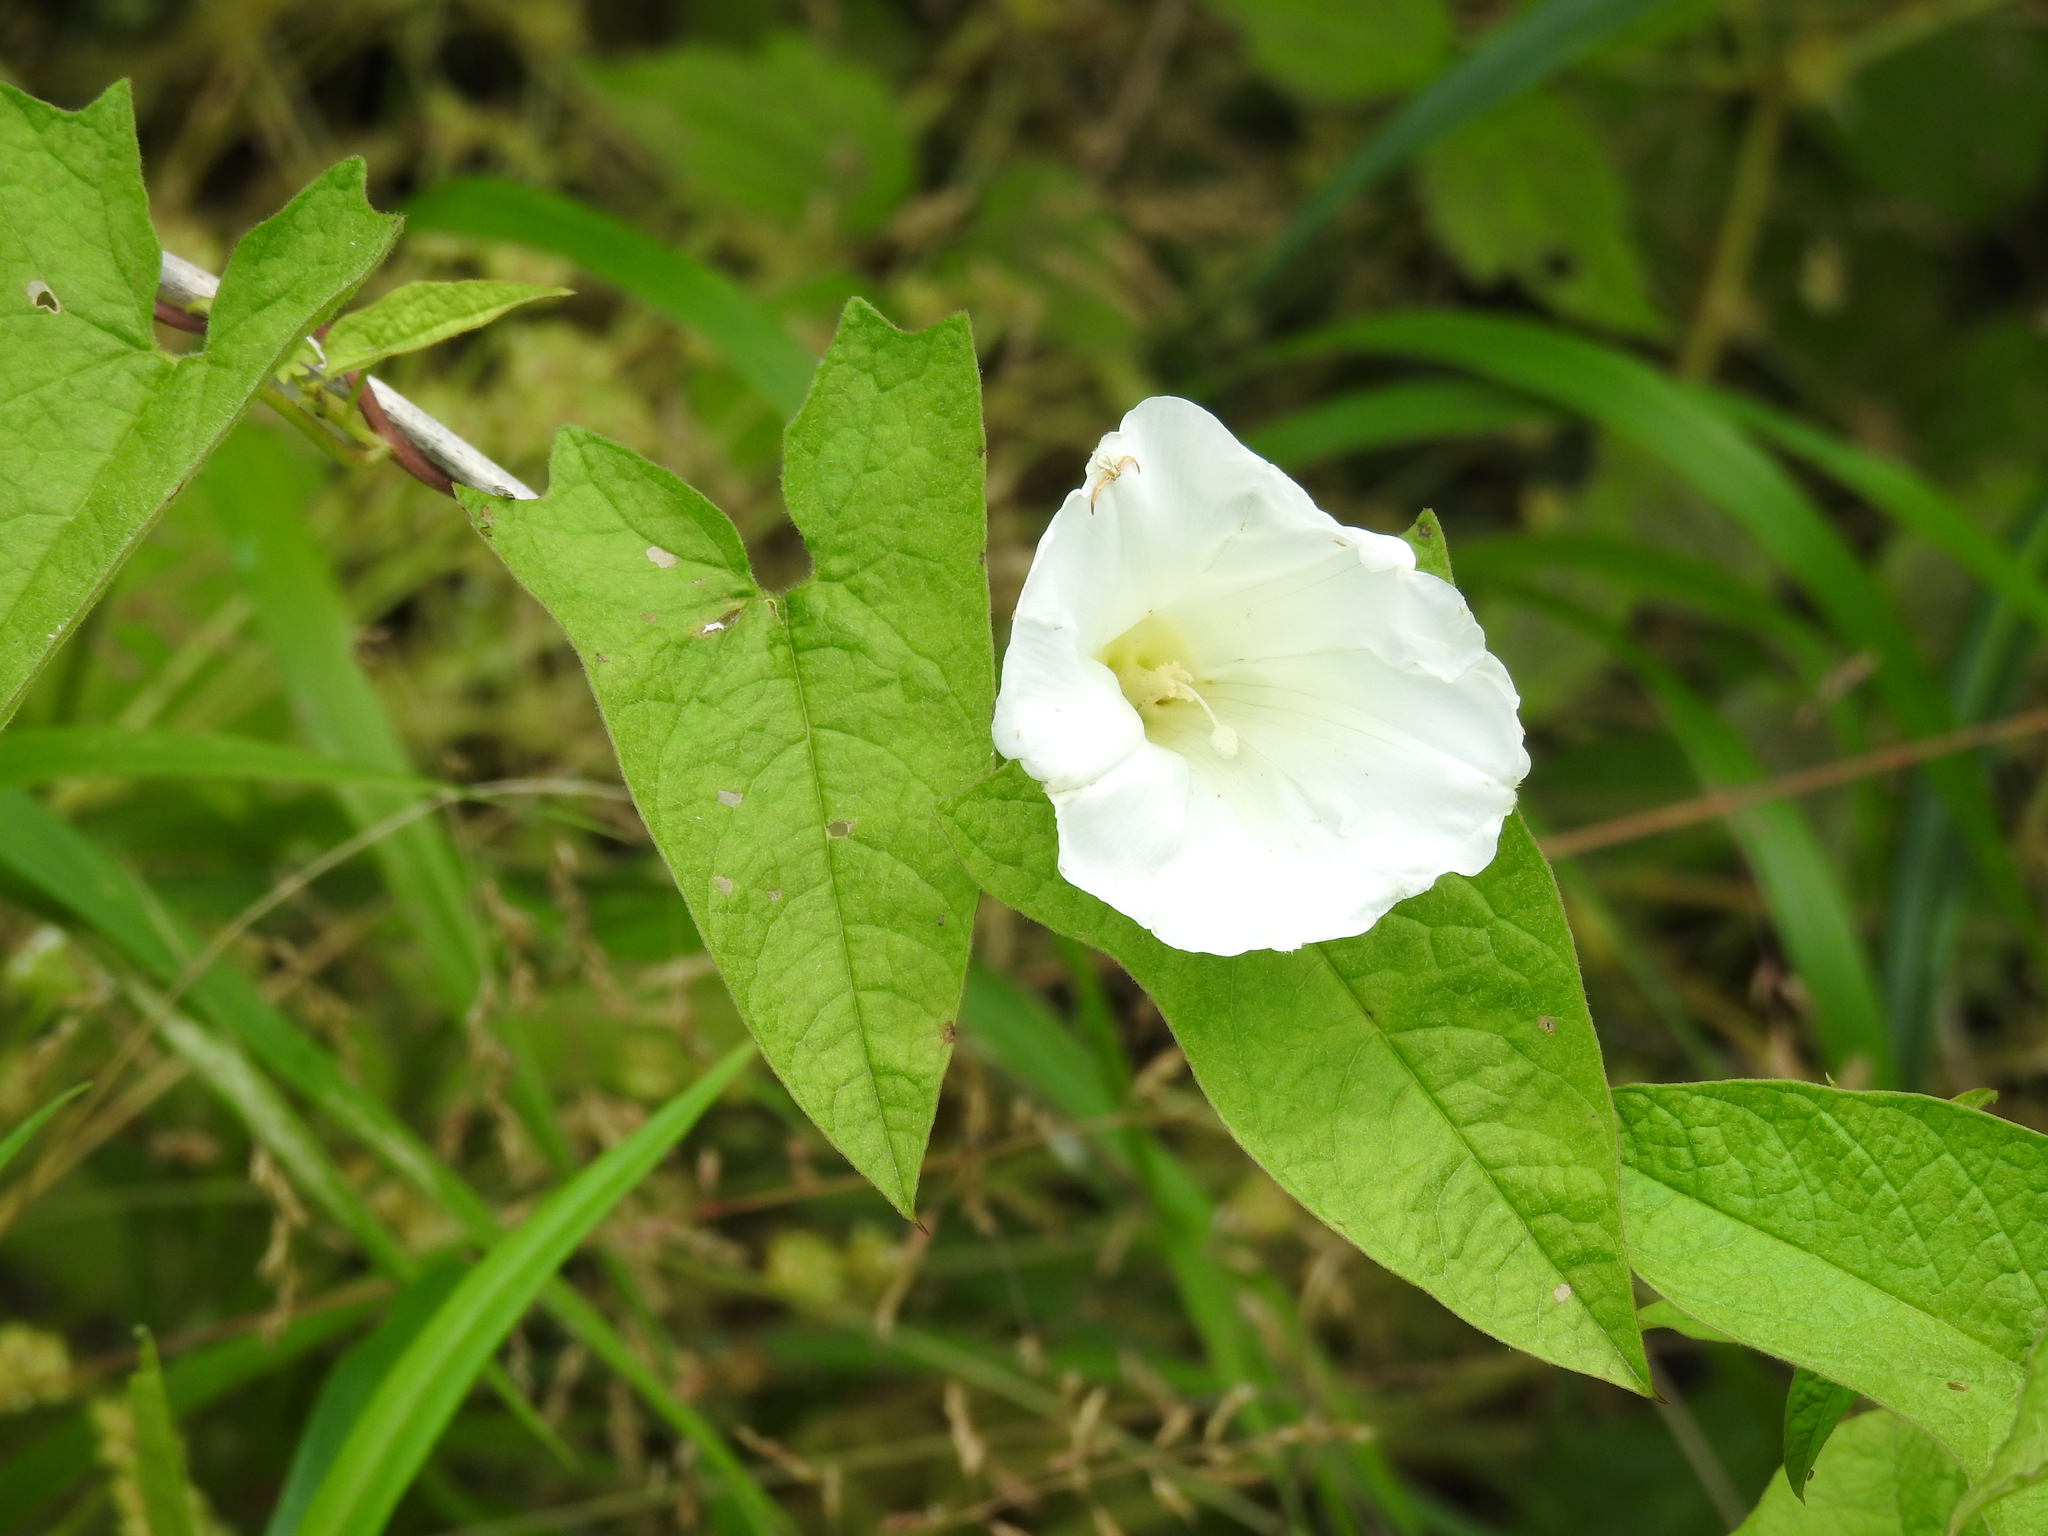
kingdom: Plantae
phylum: Tracheophyta
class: Magnoliopsida
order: Solanales
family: Convolvulaceae
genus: Calystegia
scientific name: Calystegia sepium
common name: Hedge bindweed
